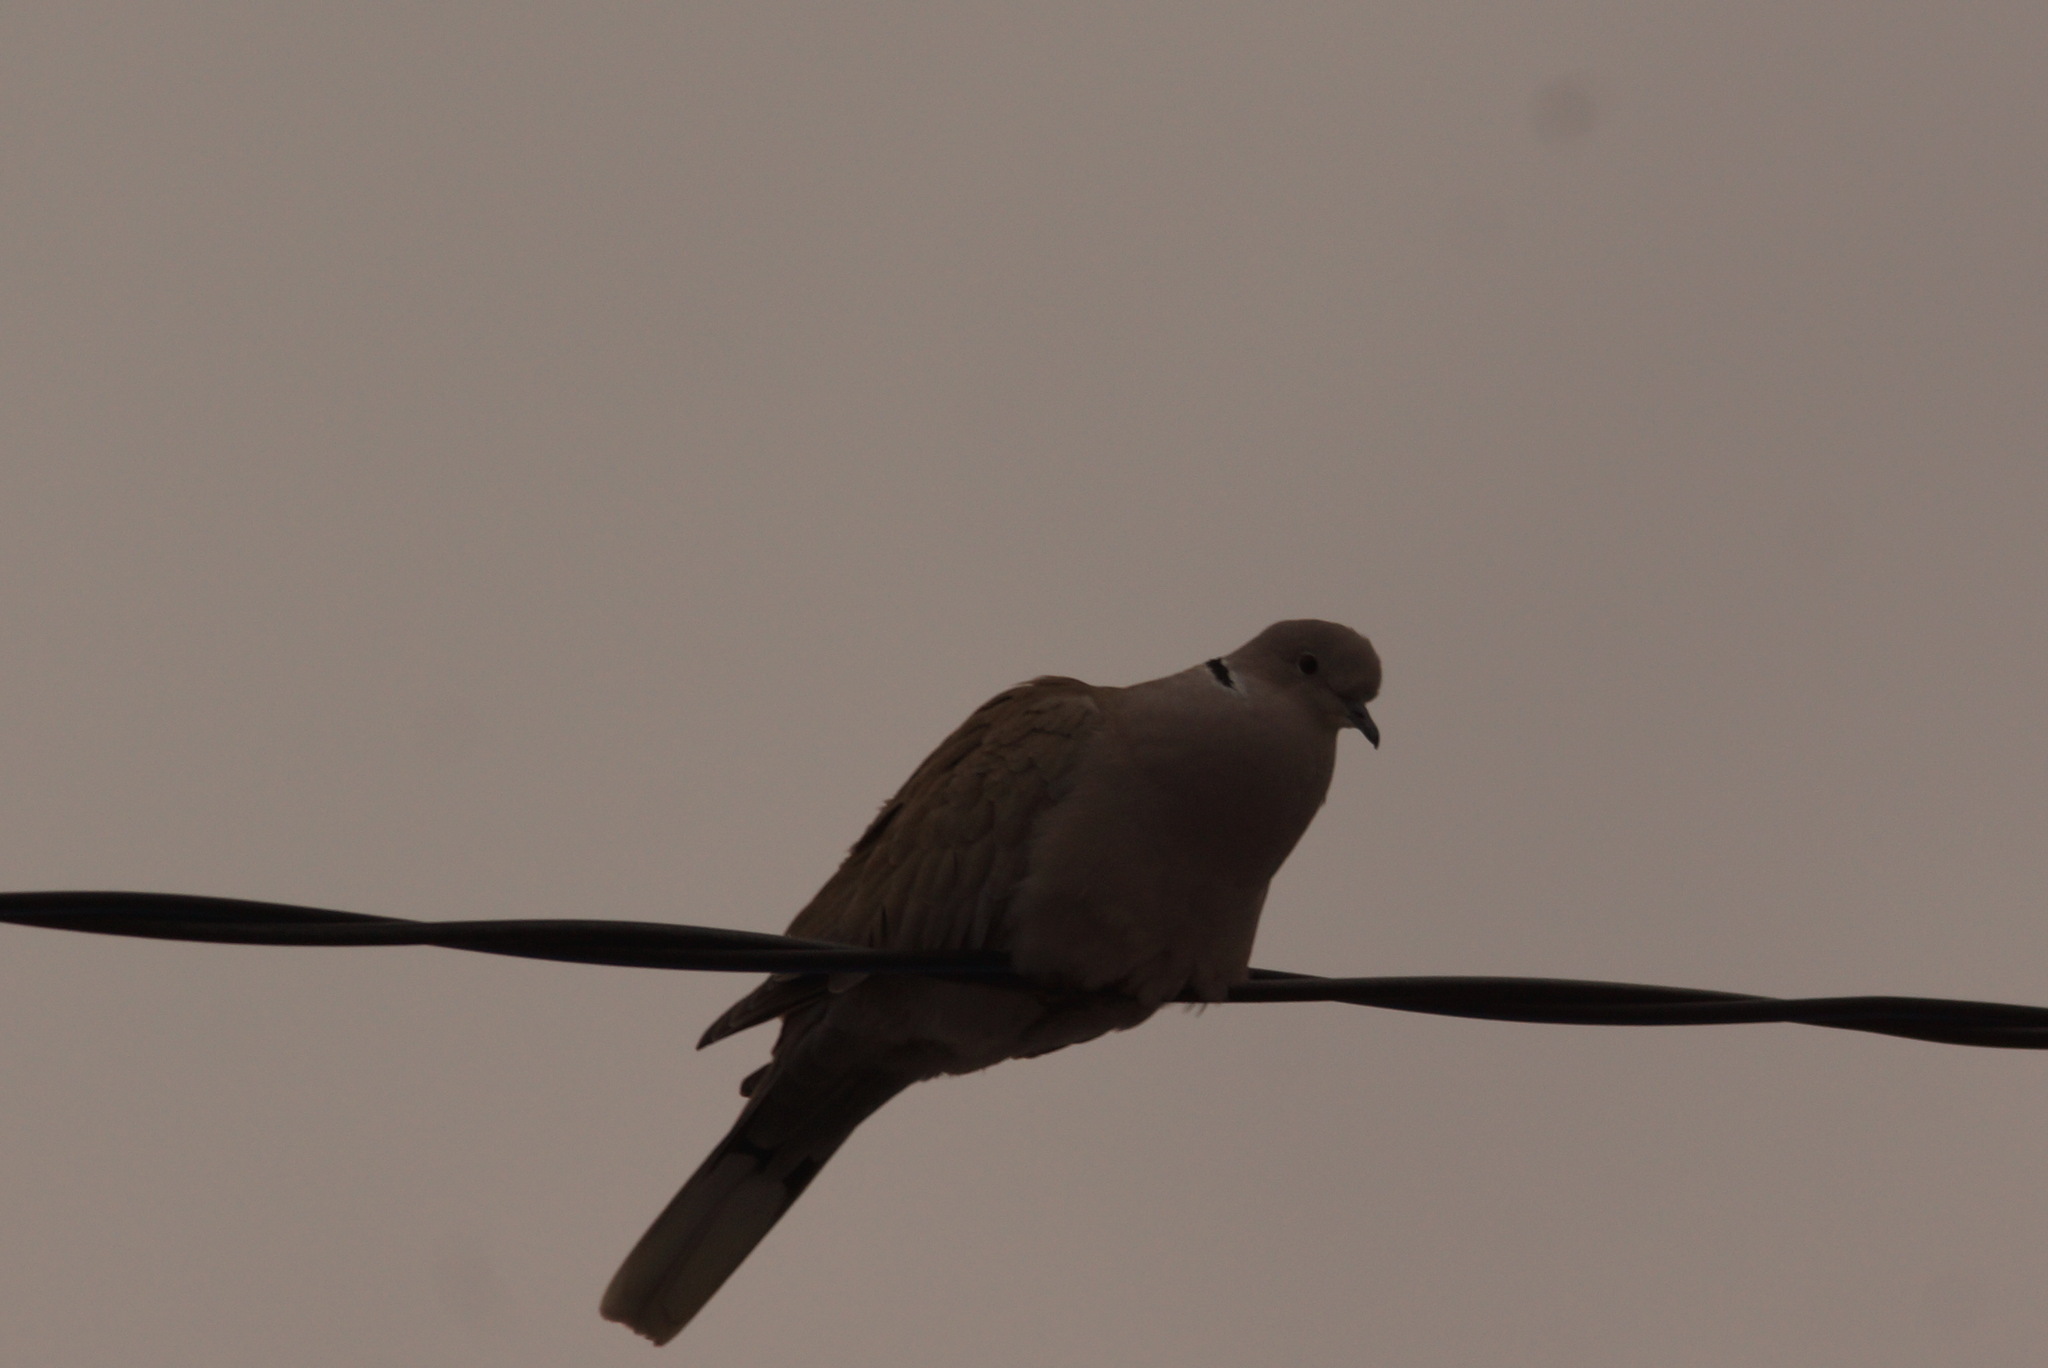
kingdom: Animalia
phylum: Chordata
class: Aves
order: Columbiformes
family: Columbidae
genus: Streptopelia
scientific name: Streptopelia decaocto
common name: Eurasian collared dove
